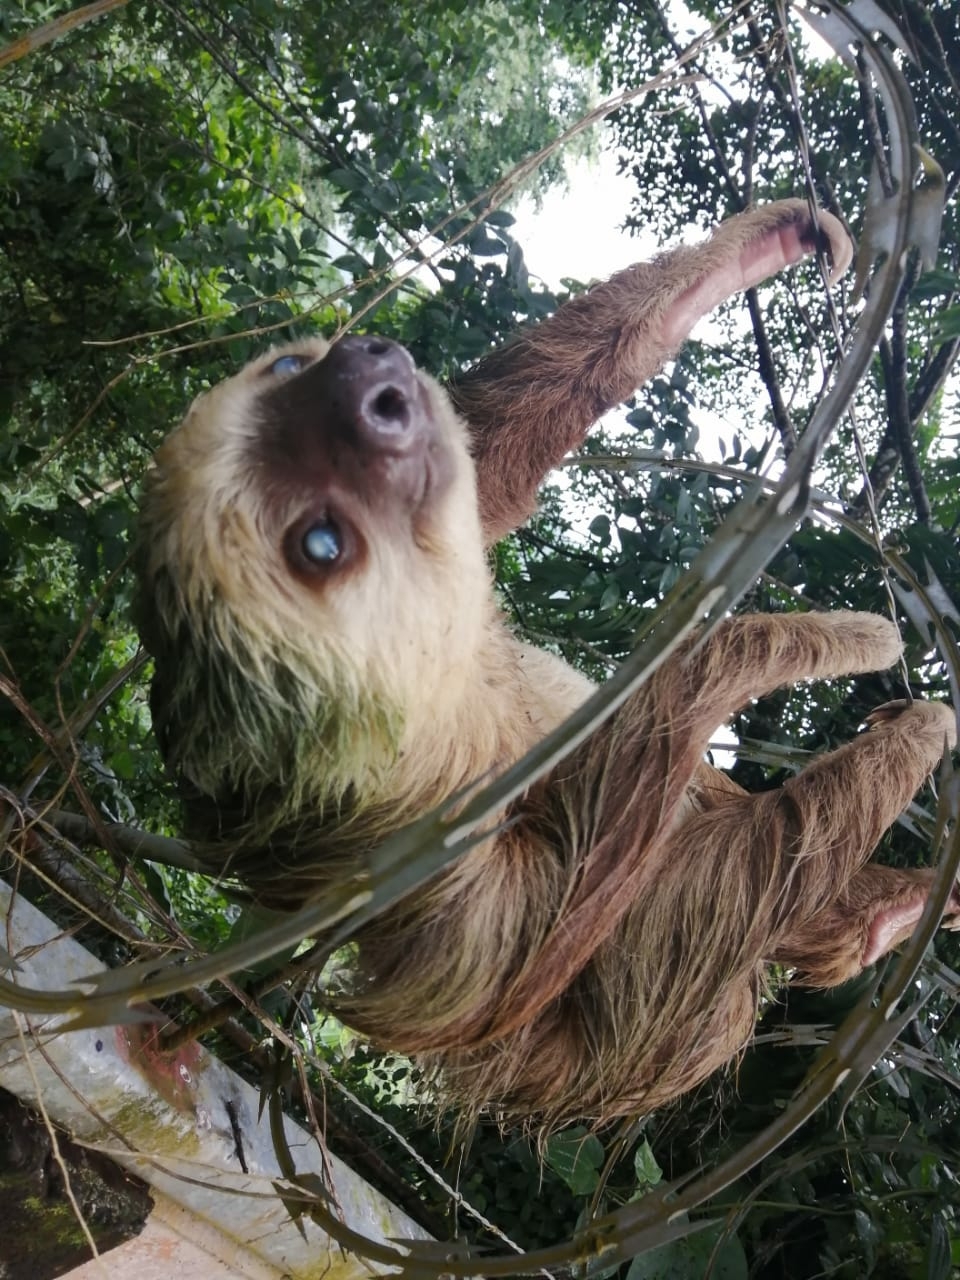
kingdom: Animalia
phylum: Chordata
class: Mammalia
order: Pilosa
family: Megalonychidae
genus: Choloepus
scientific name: Choloepus hoffmanni
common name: Hoffmann's two-toed sloth
